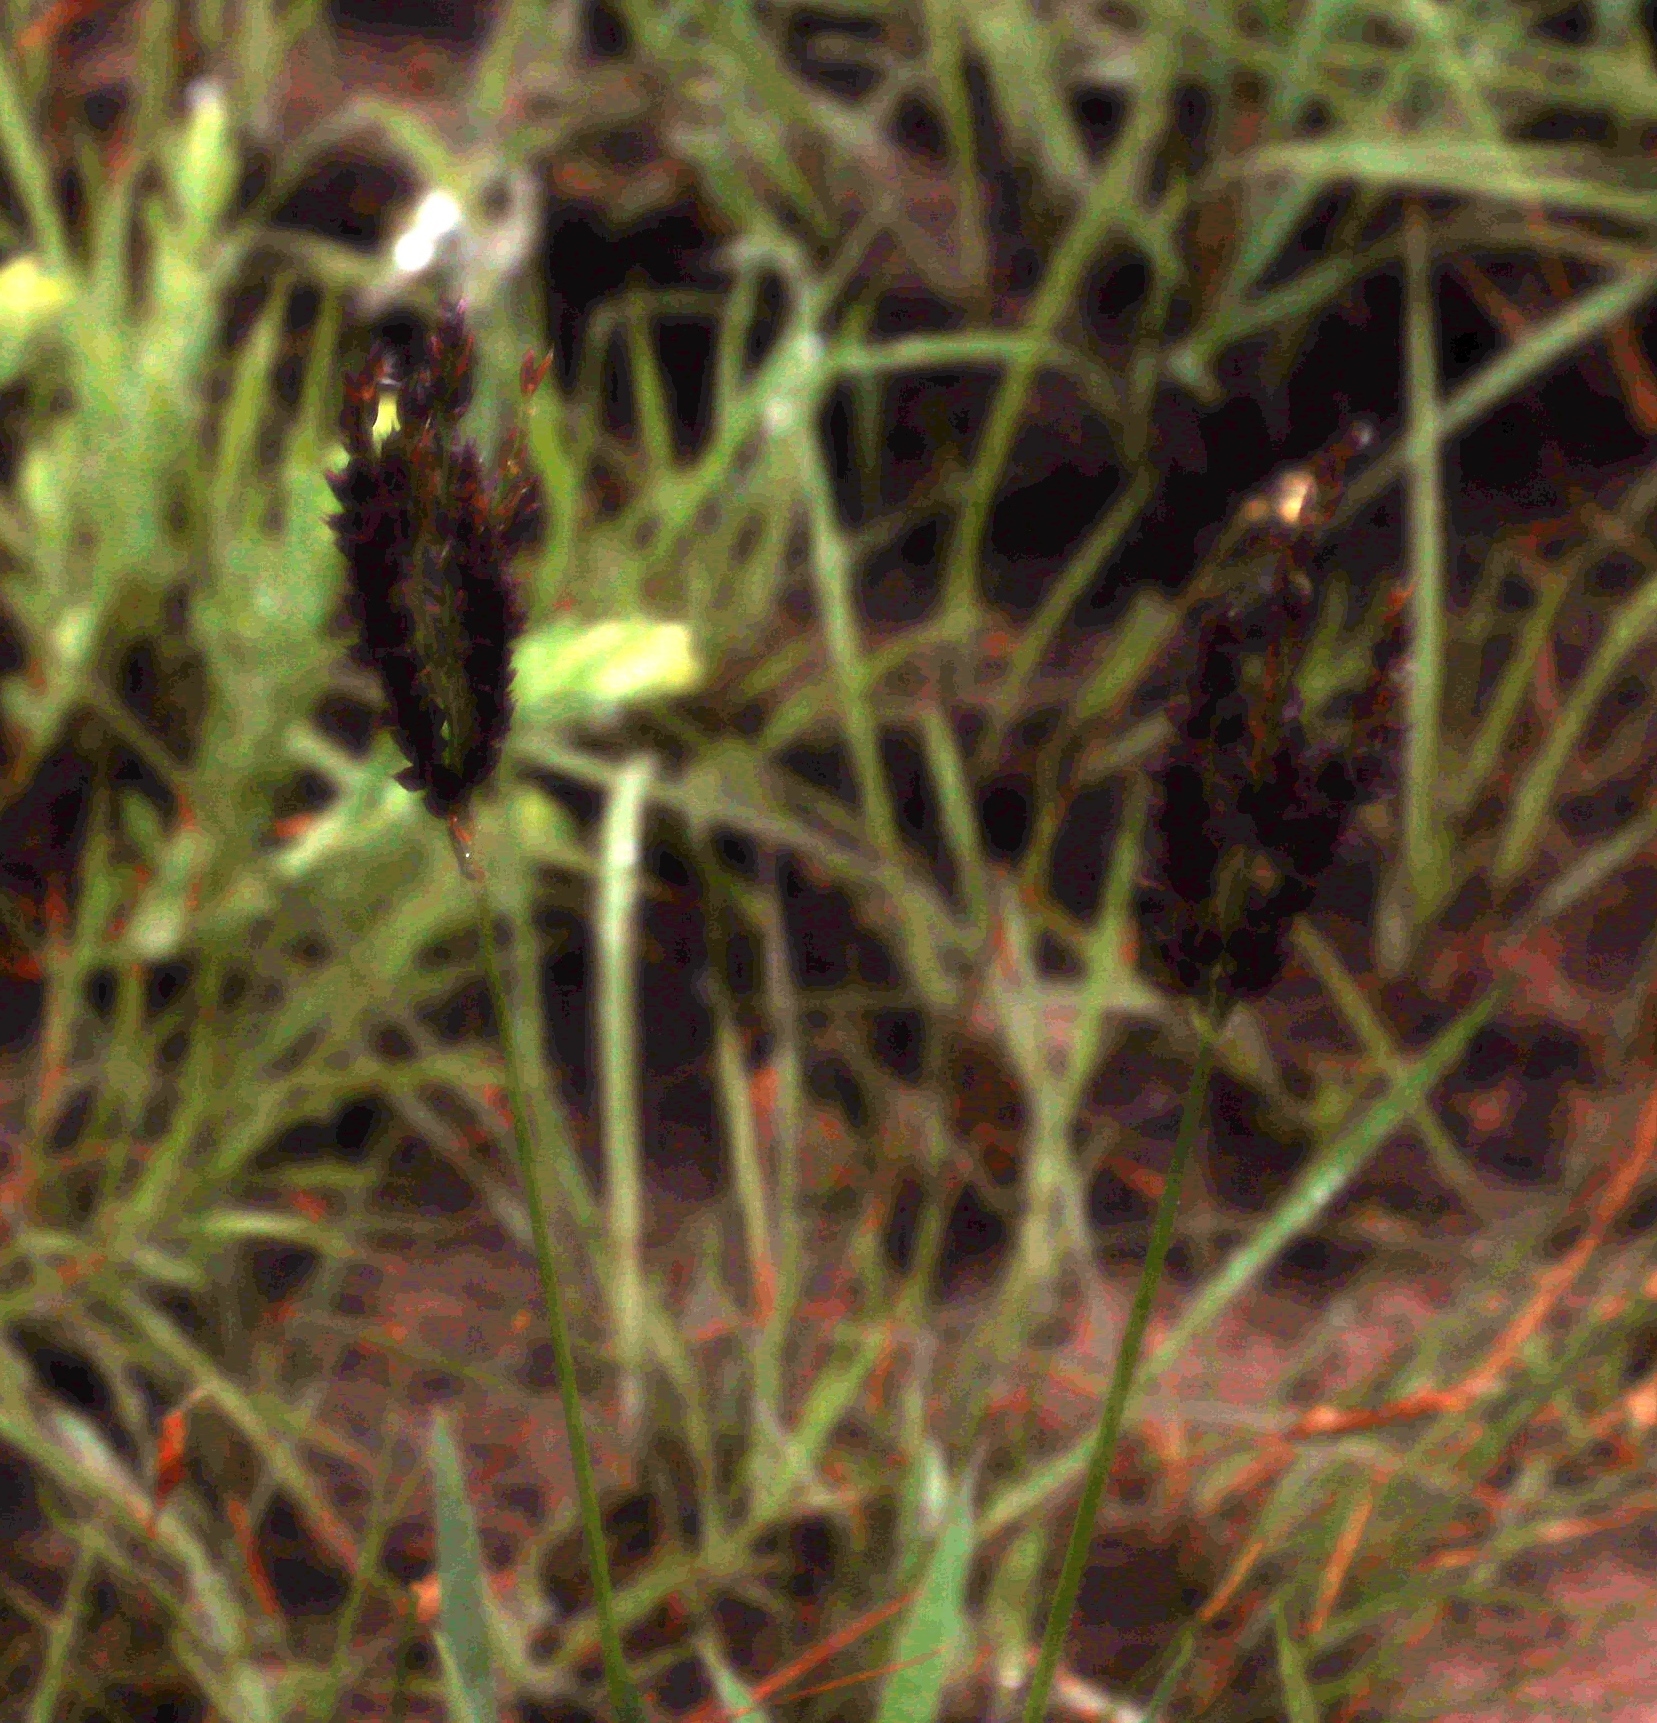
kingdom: Plantae
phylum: Tracheophyta
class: Liliopsida
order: Poales
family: Poaceae
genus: Alloteropsis
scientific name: Alloteropsis semialata
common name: Cockatoo grass
